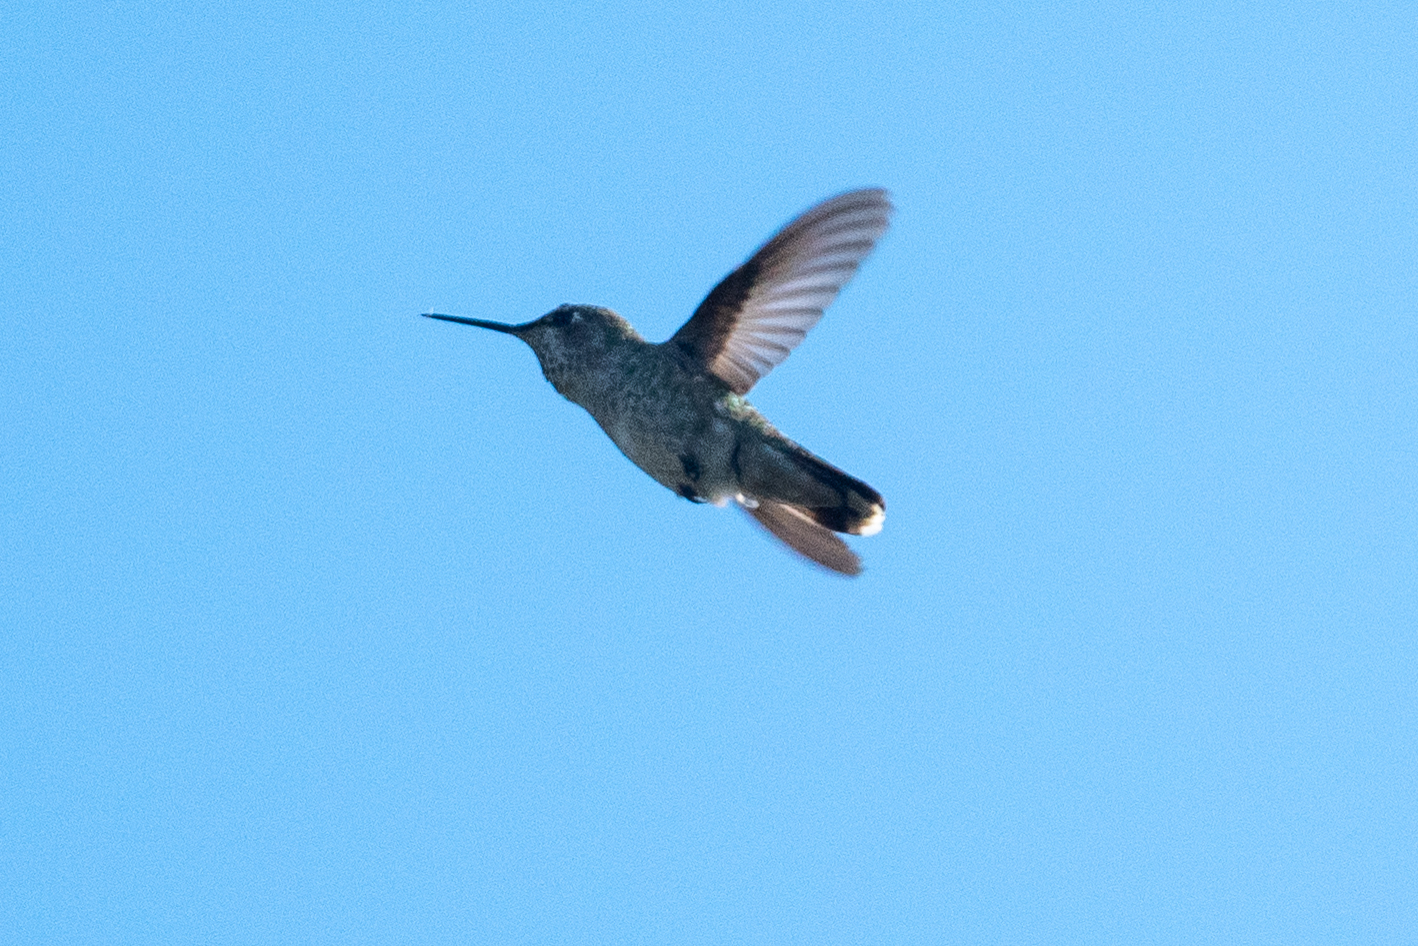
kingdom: Animalia
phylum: Chordata
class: Aves
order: Apodiformes
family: Trochilidae
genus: Calypte
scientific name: Calypte anna
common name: Anna's hummingbird
